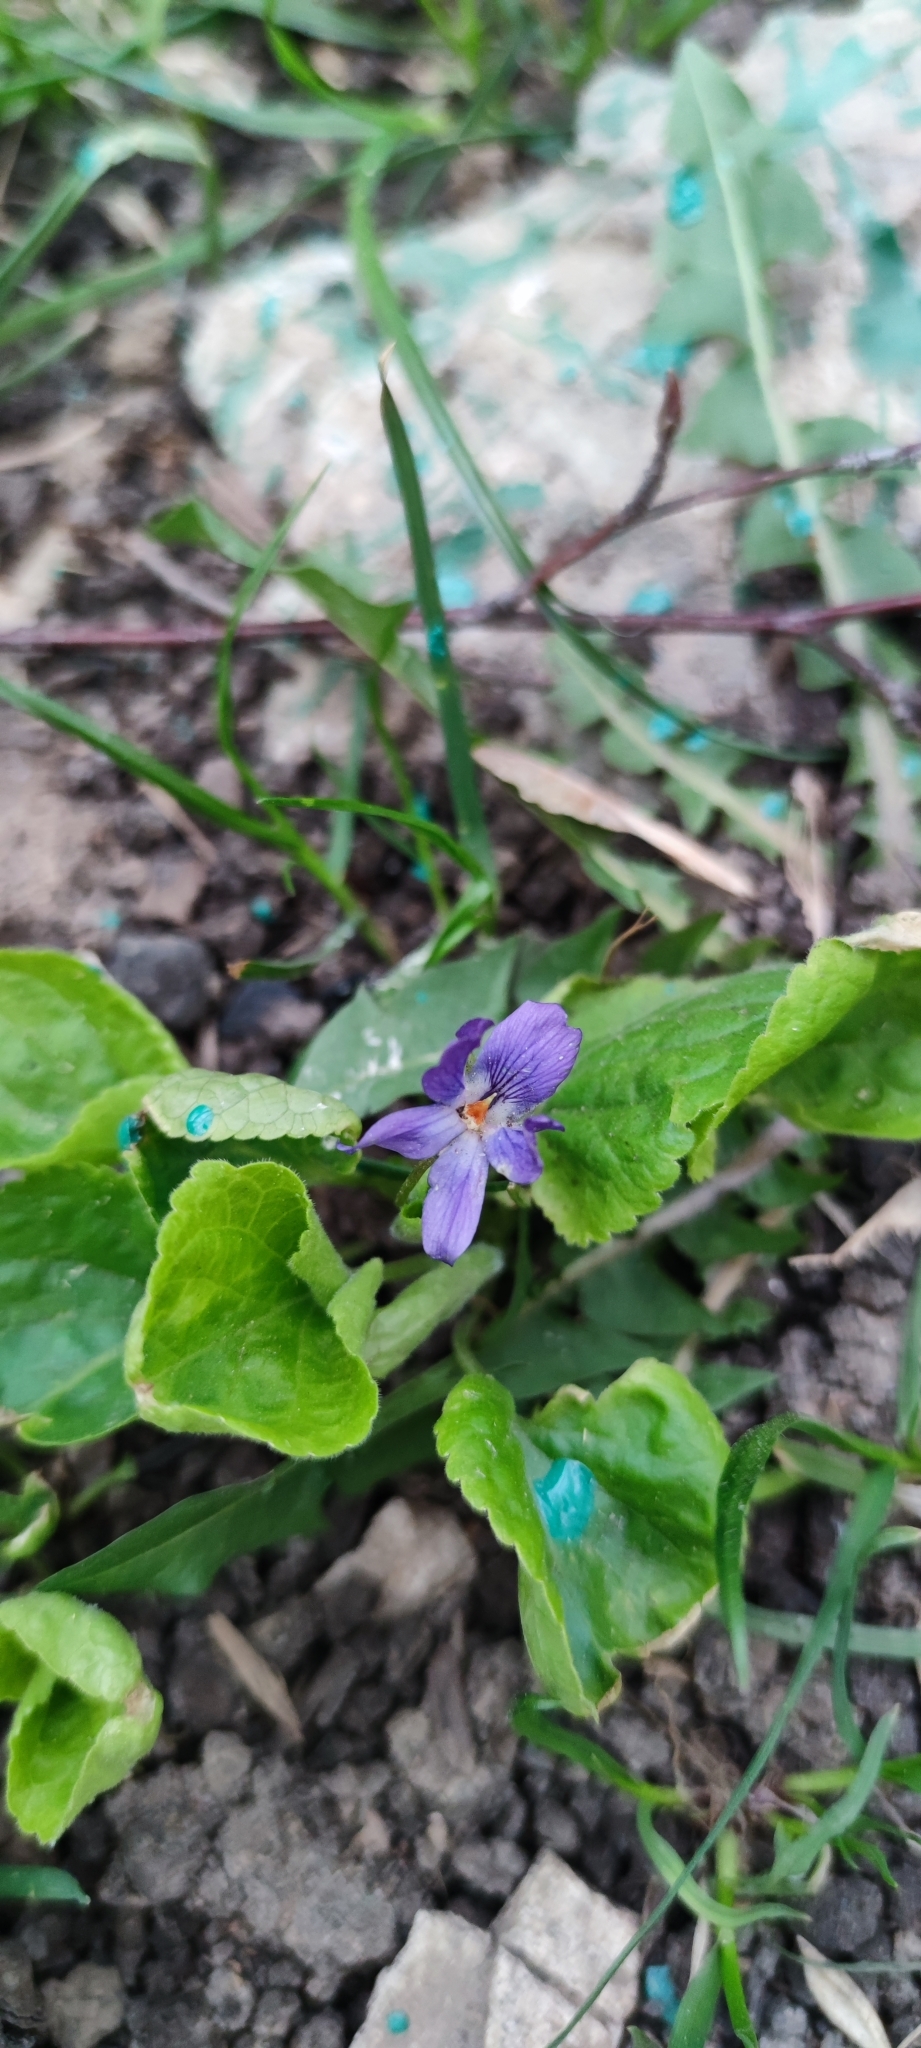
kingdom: Plantae
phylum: Tracheophyta
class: Magnoliopsida
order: Malpighiales
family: Violaceae
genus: Viola
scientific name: Viola odorata
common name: Sweet violet
